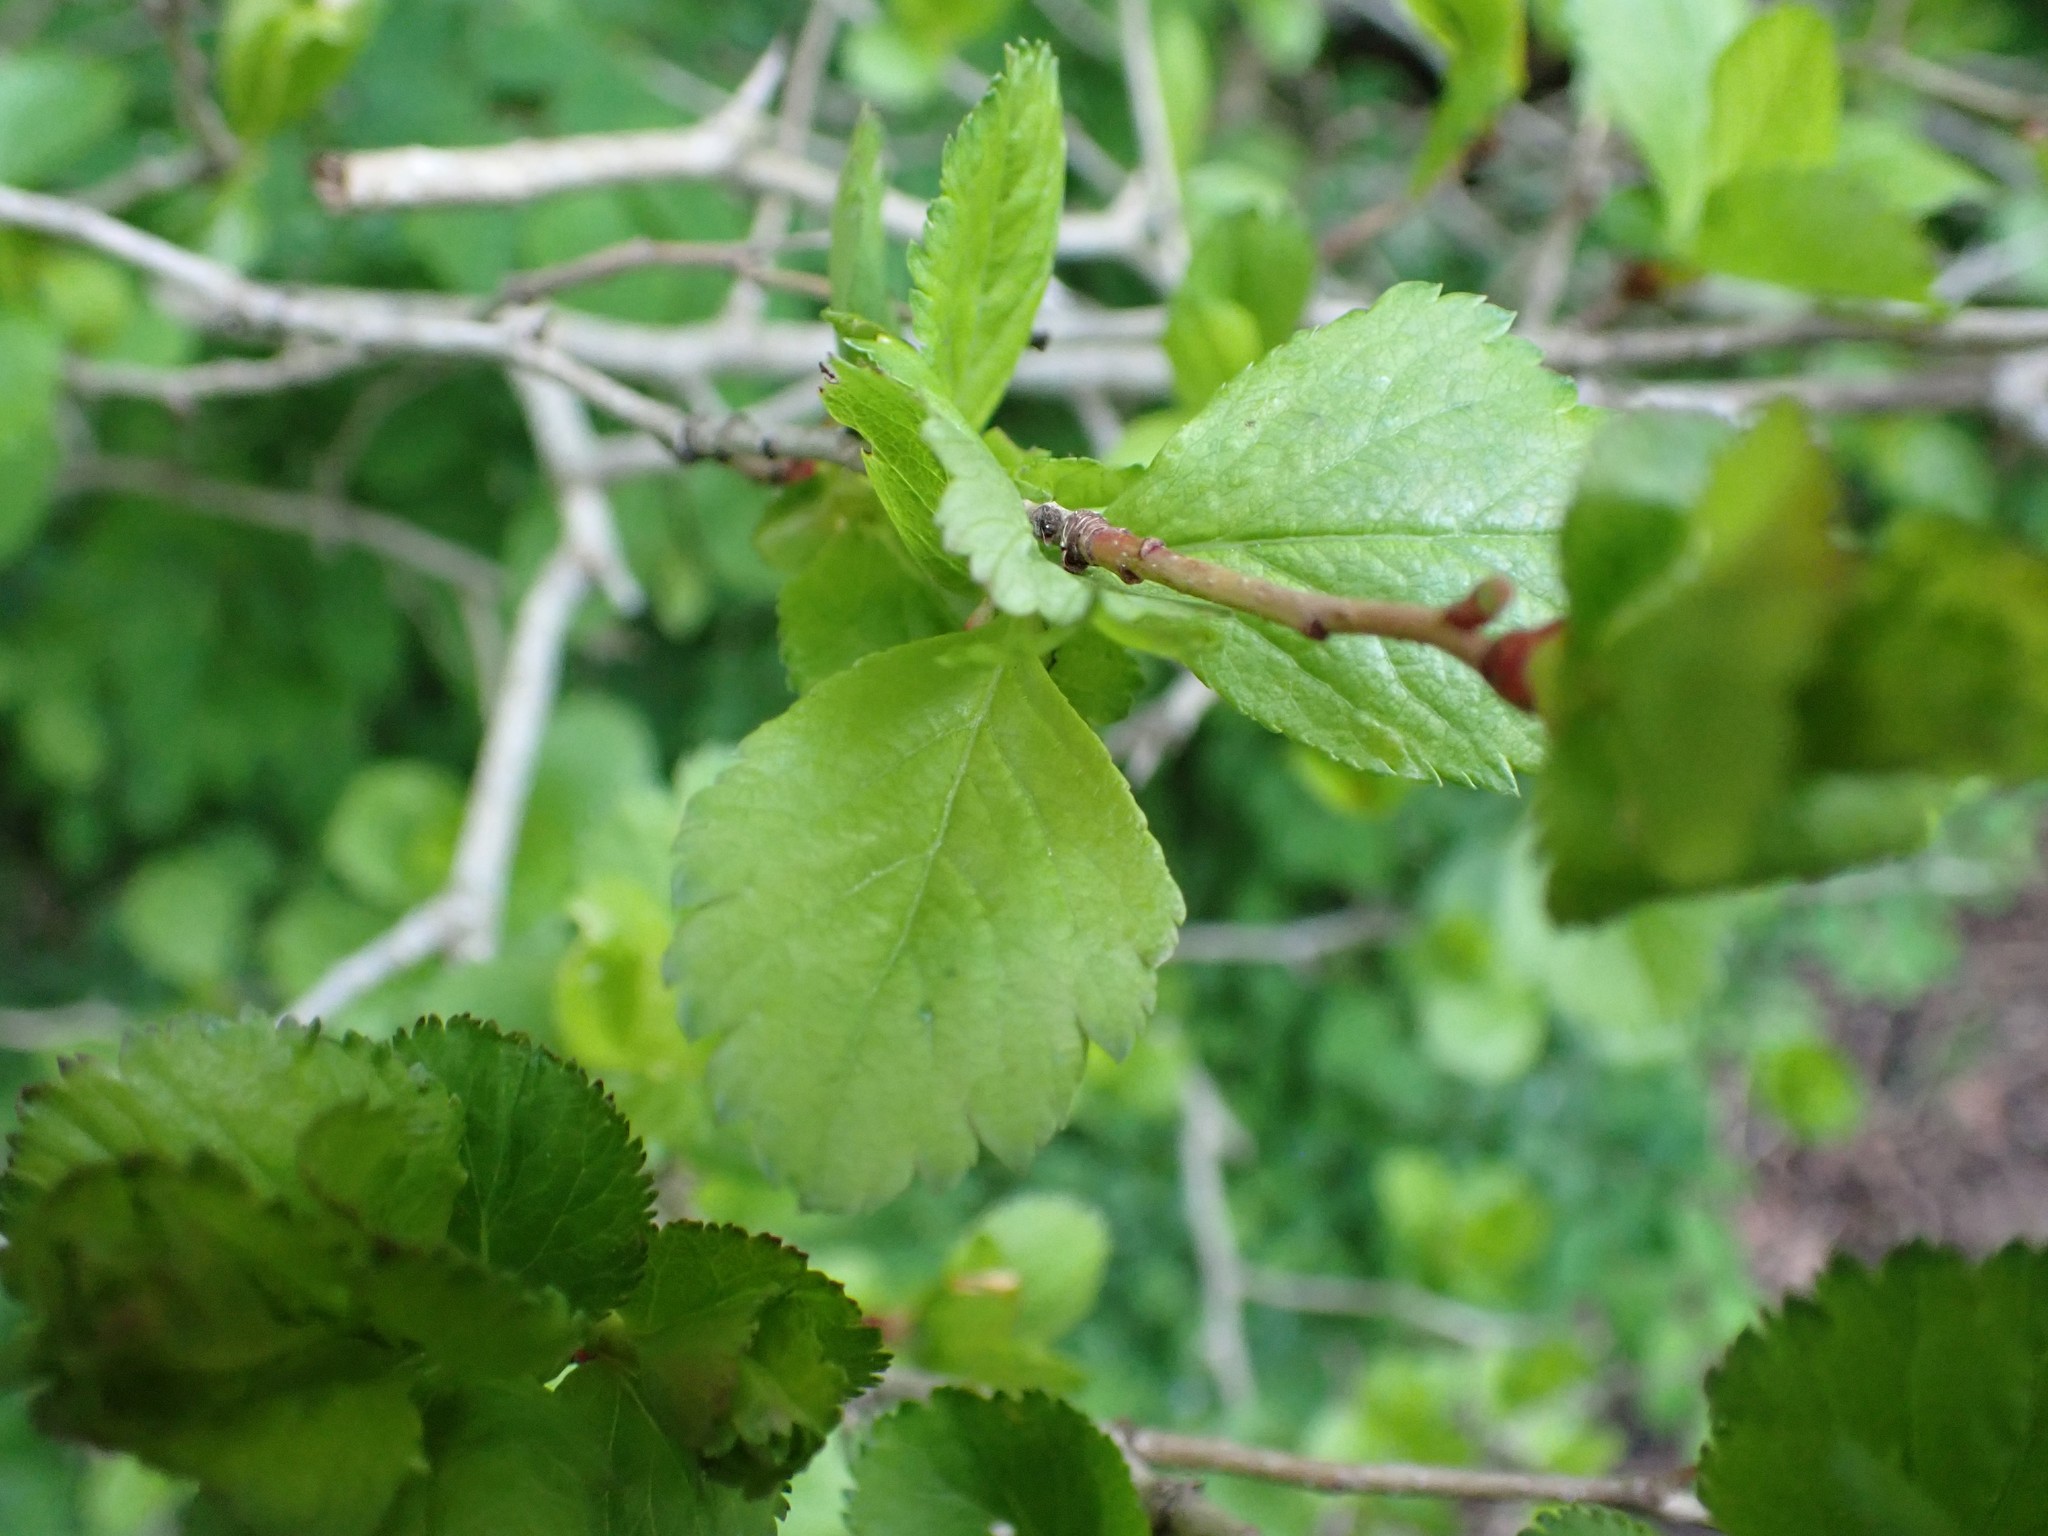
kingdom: Plantae
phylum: Tracheophyta
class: Magnoliopsida
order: Rosales
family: Rosaceae
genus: Crataegus
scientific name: Crataegus douglasii
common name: Black hawthorn
